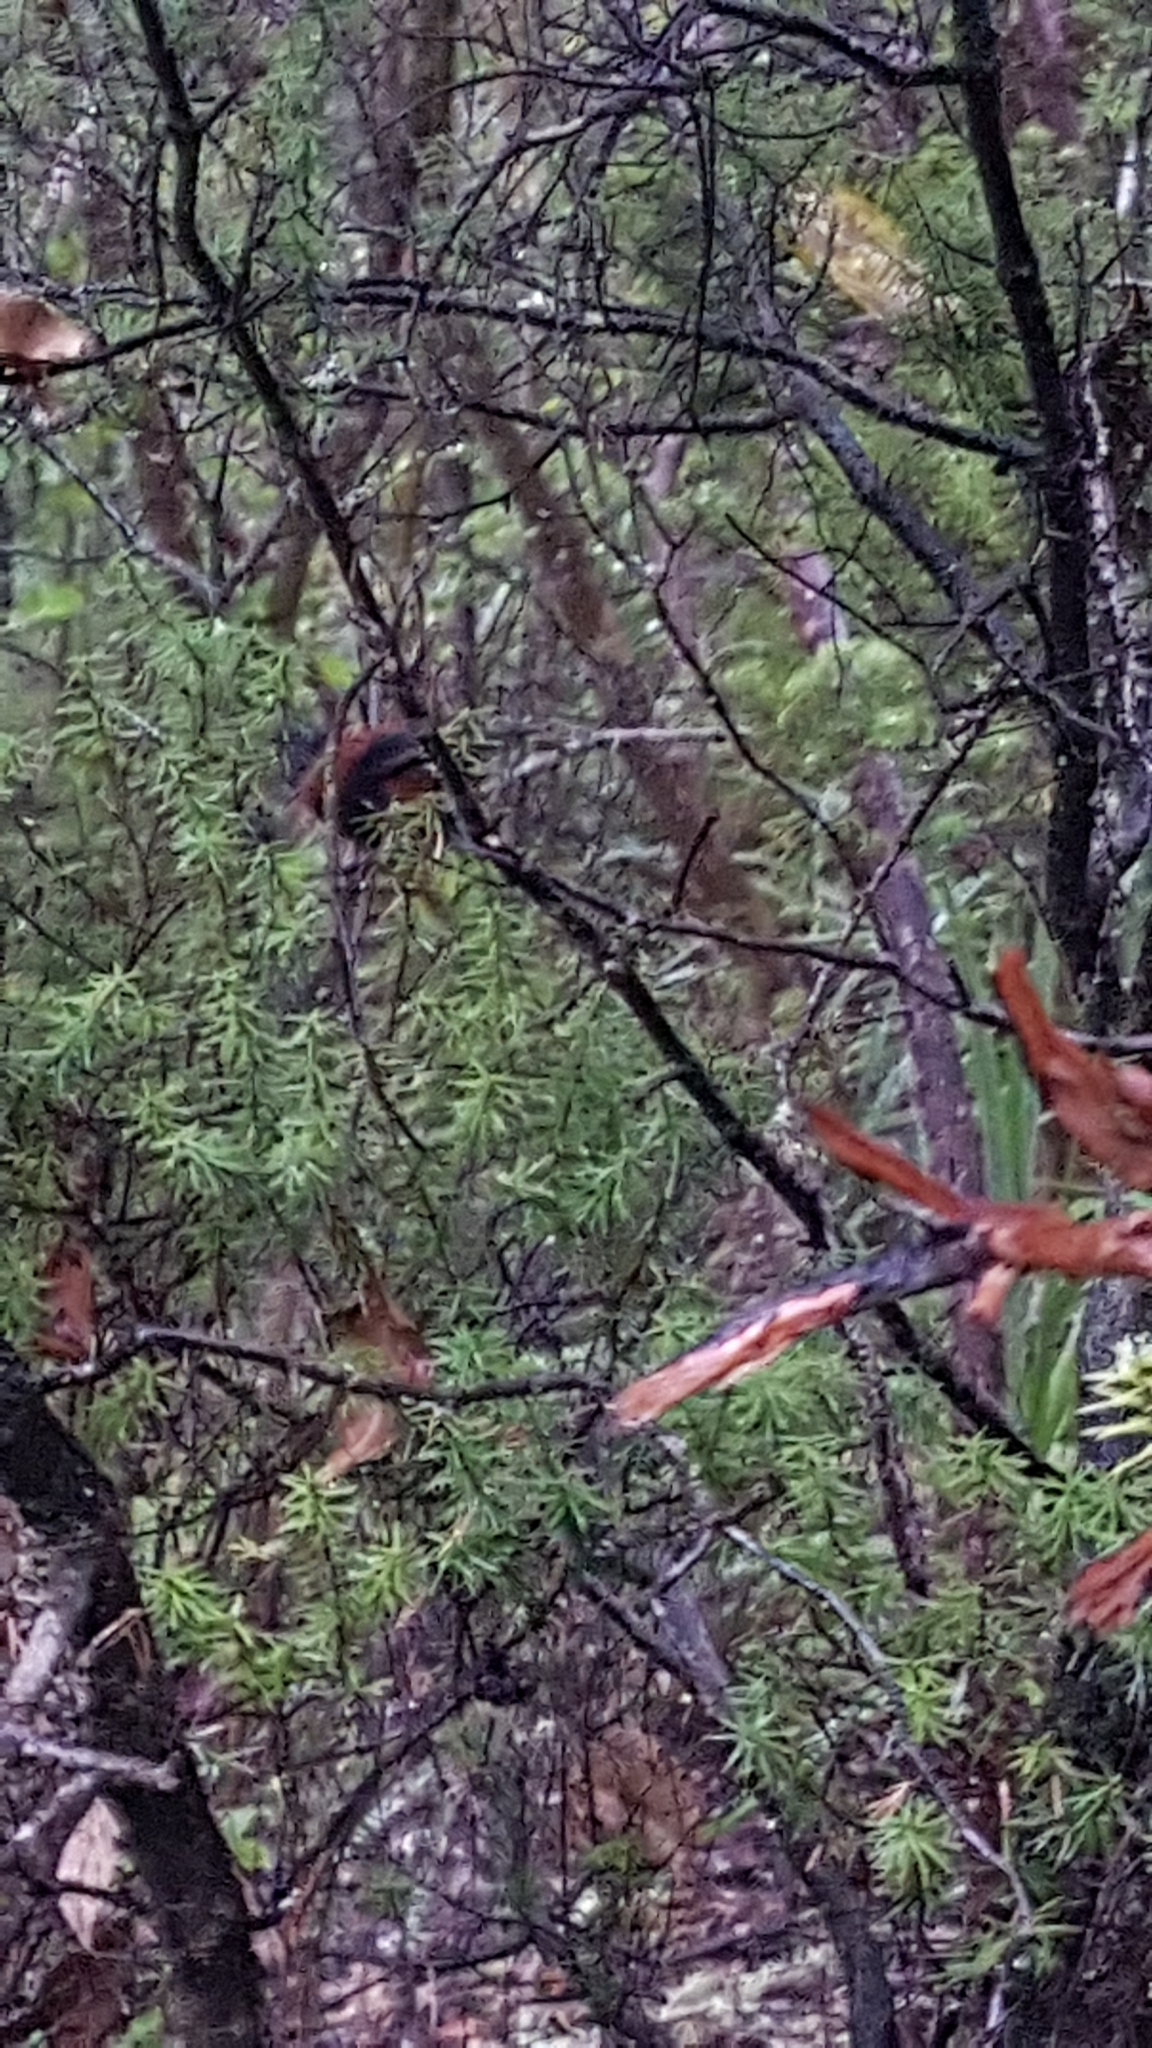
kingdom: Animalia
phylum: Chordata
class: Aves
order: Passeriformes
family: Callaeatidae
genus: Philesturnus
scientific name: Philesturnus carunculatus
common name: South island saddleback
